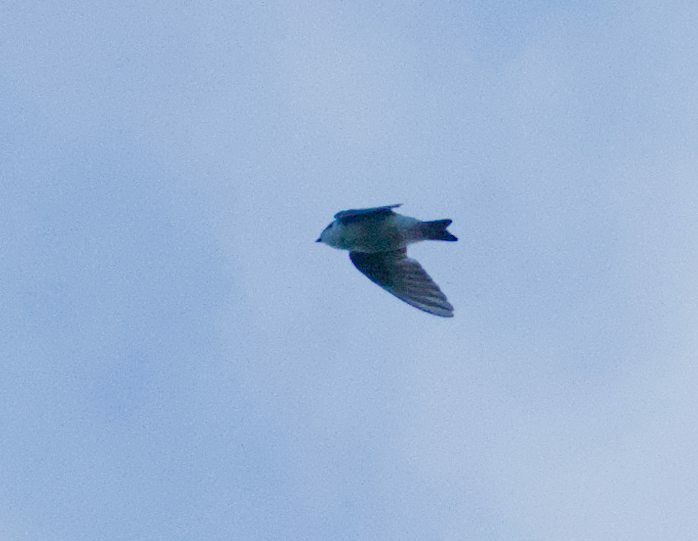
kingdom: Animalia
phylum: Chordata
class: Aves
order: Passeriformes
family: Hirundinidae
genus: Tachycineta
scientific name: Tachycineta bicolor
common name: Tree swallow
